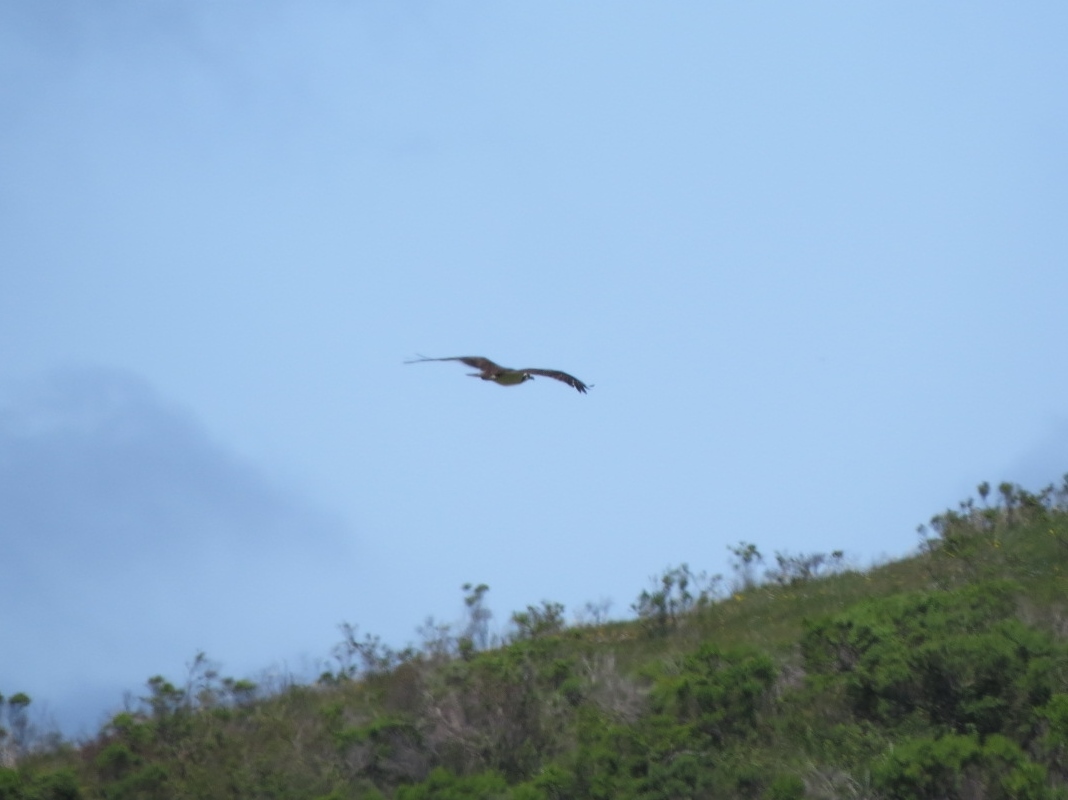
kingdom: Animalia
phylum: Chordata
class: Aves
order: Accipitriformes
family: Pandionidae
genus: Pandion
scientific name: Pandion haliaetus
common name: Osprey
